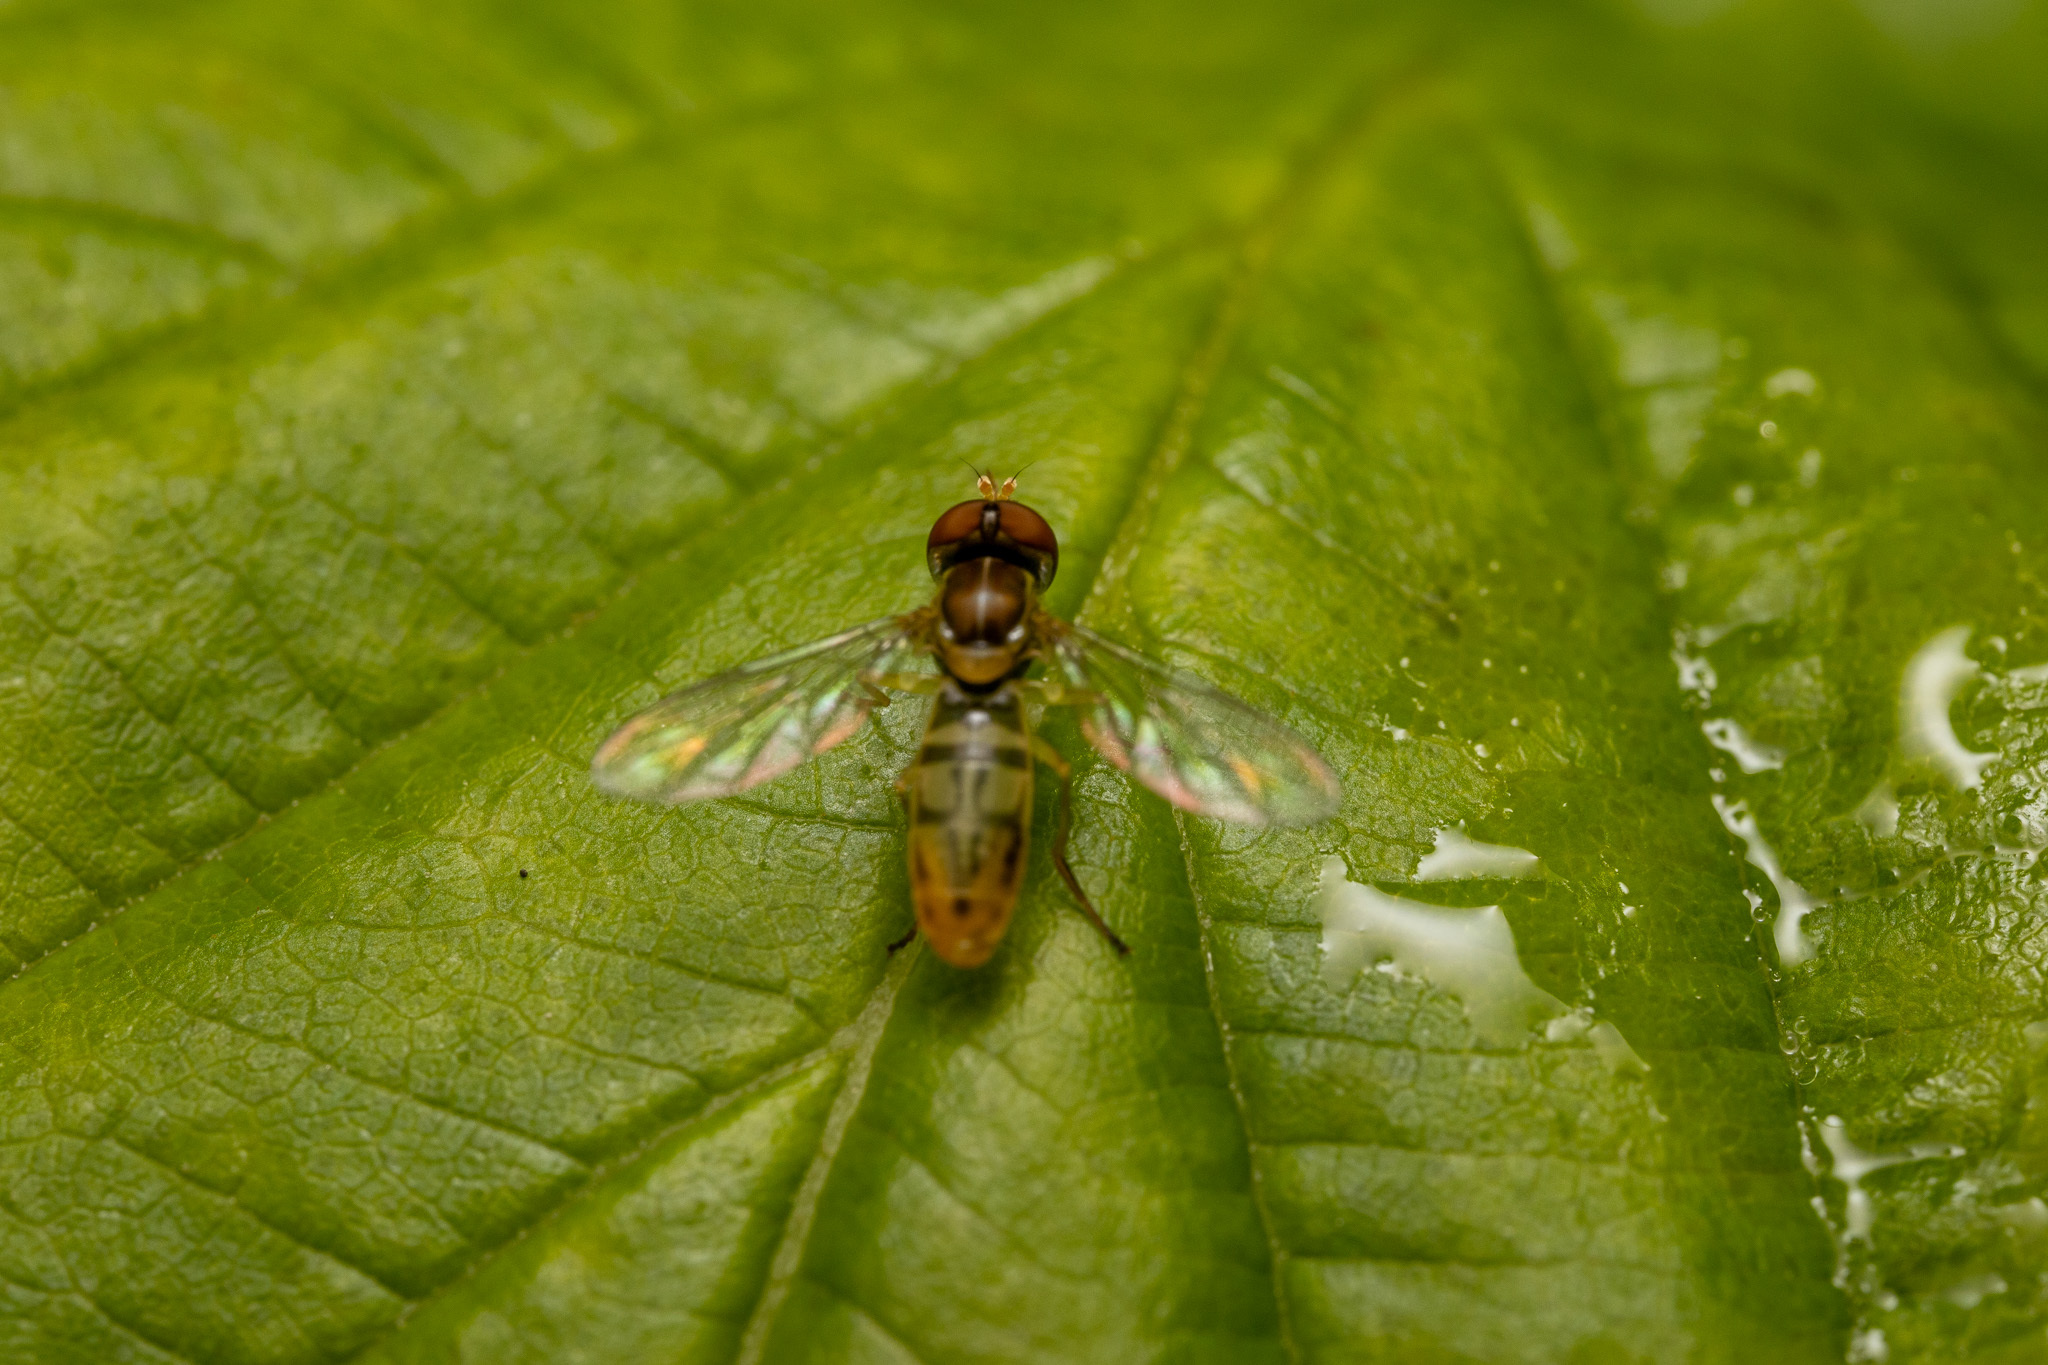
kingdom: Animalia
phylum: Arthropoda
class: Insecta
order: Diptera
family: Syrphidae
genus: Toxomerus
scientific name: Toxomerus marginatus
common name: Syrphid fly
